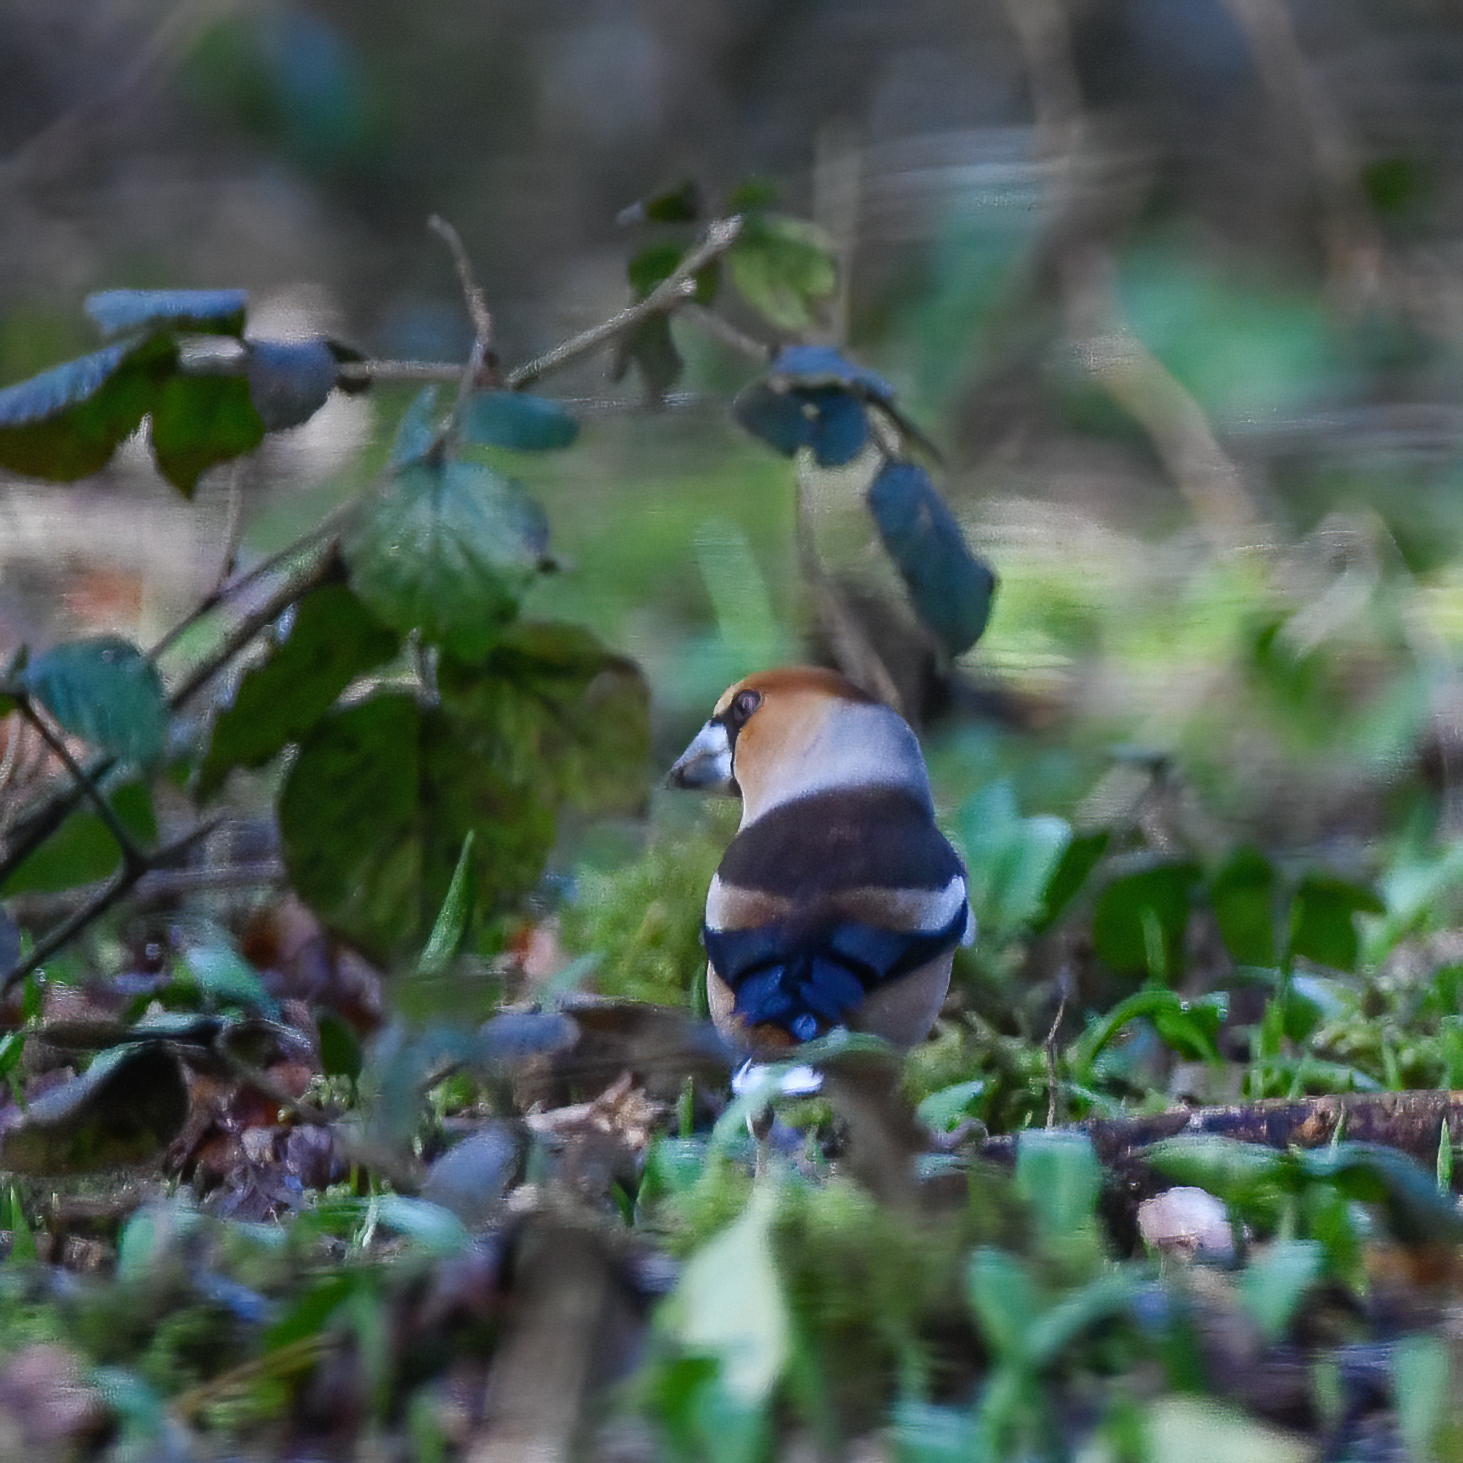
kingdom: Animalia
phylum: Chordata
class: Aves
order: Passeriformes
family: Fringillidae
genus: Coccothraustes
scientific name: Coccothraustes coccothraustes
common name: Hawfinch
